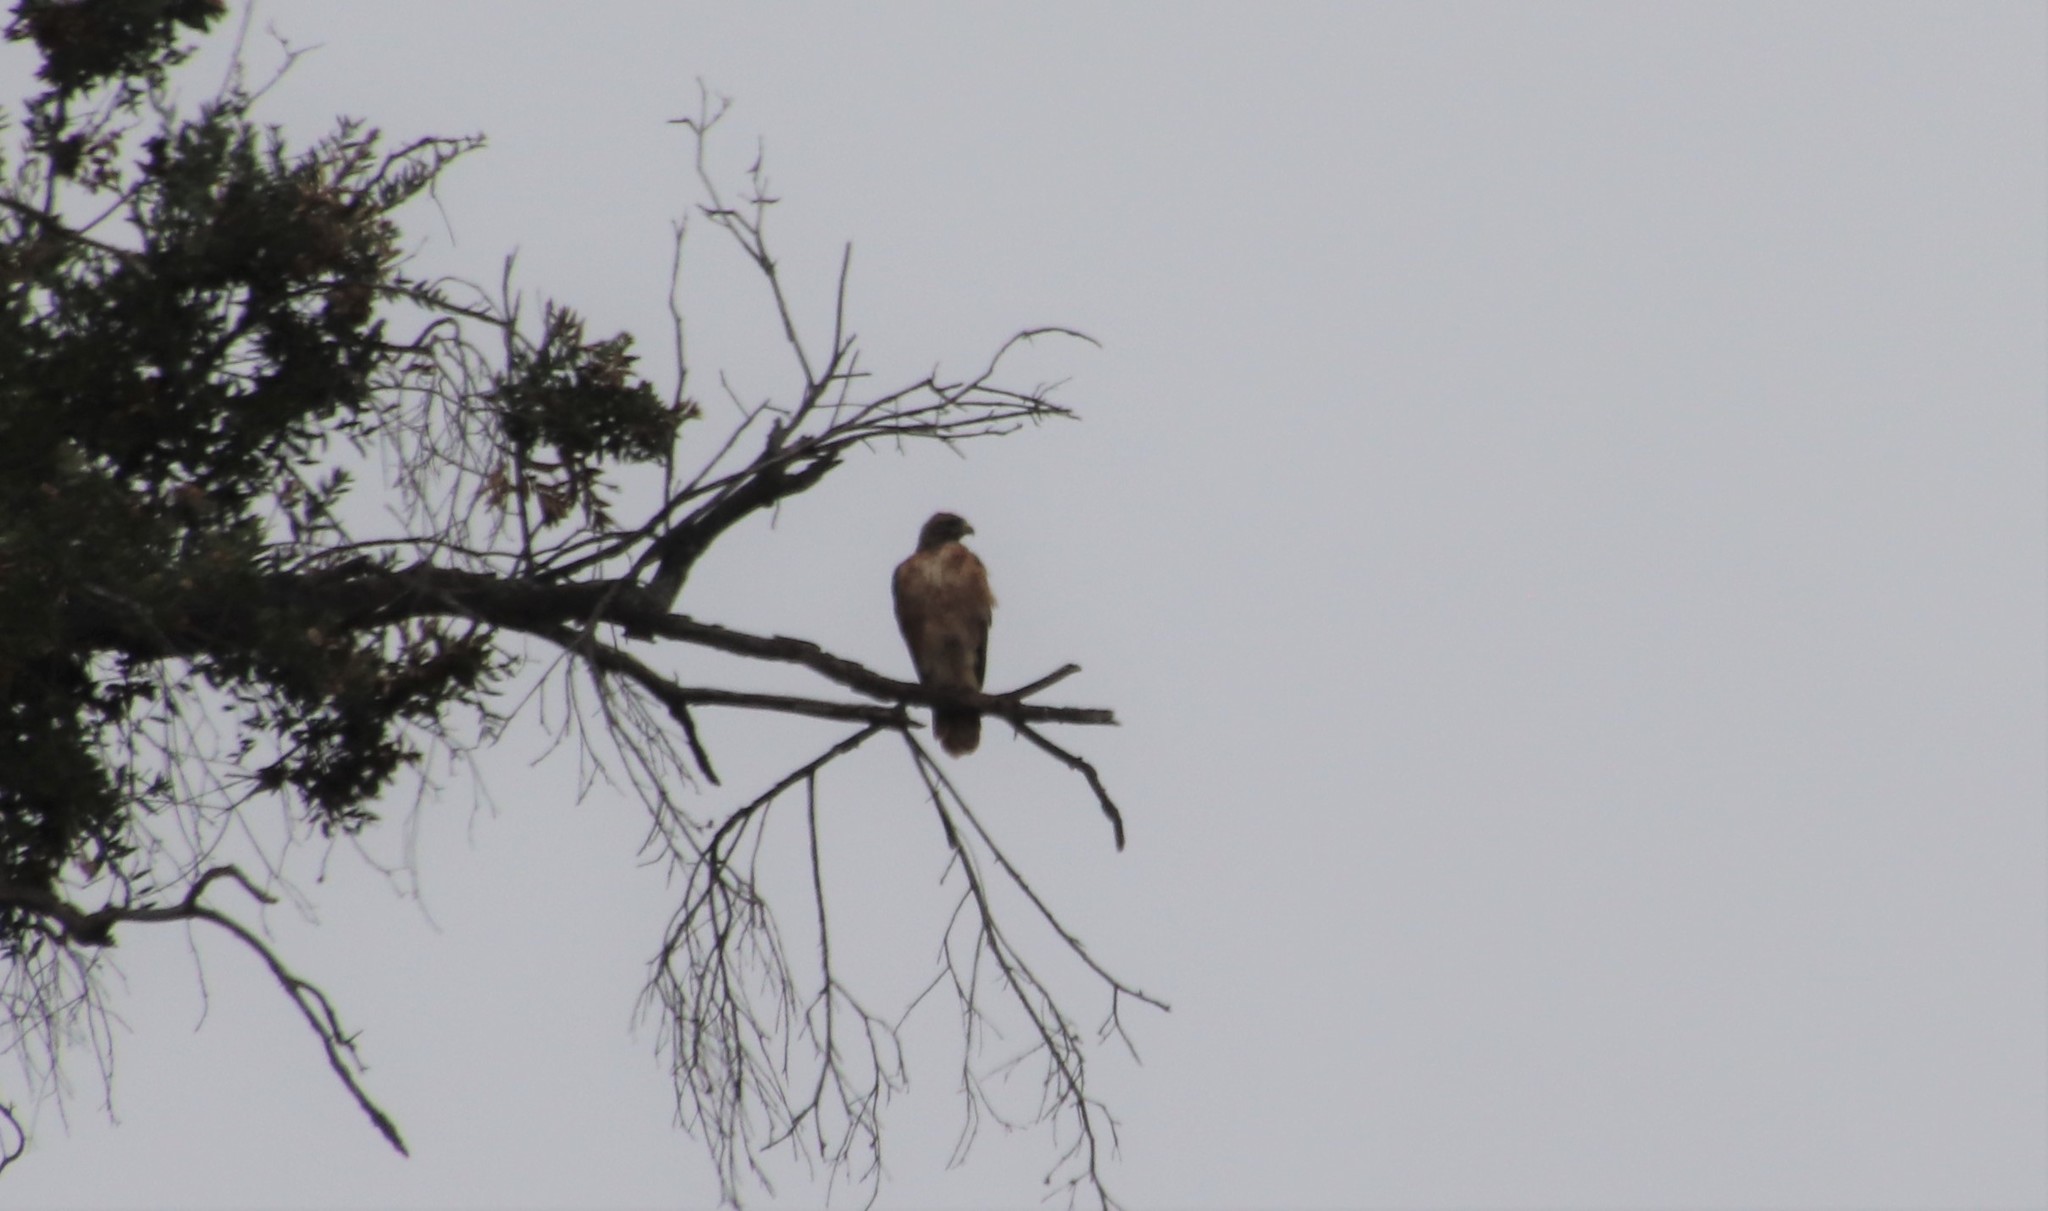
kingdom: Animalia
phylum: Chordata
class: Aves
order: Accipitriformes
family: Accipitridae
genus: Buteo
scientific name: Buteo jamaicensis
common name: Red-tailed hawk
